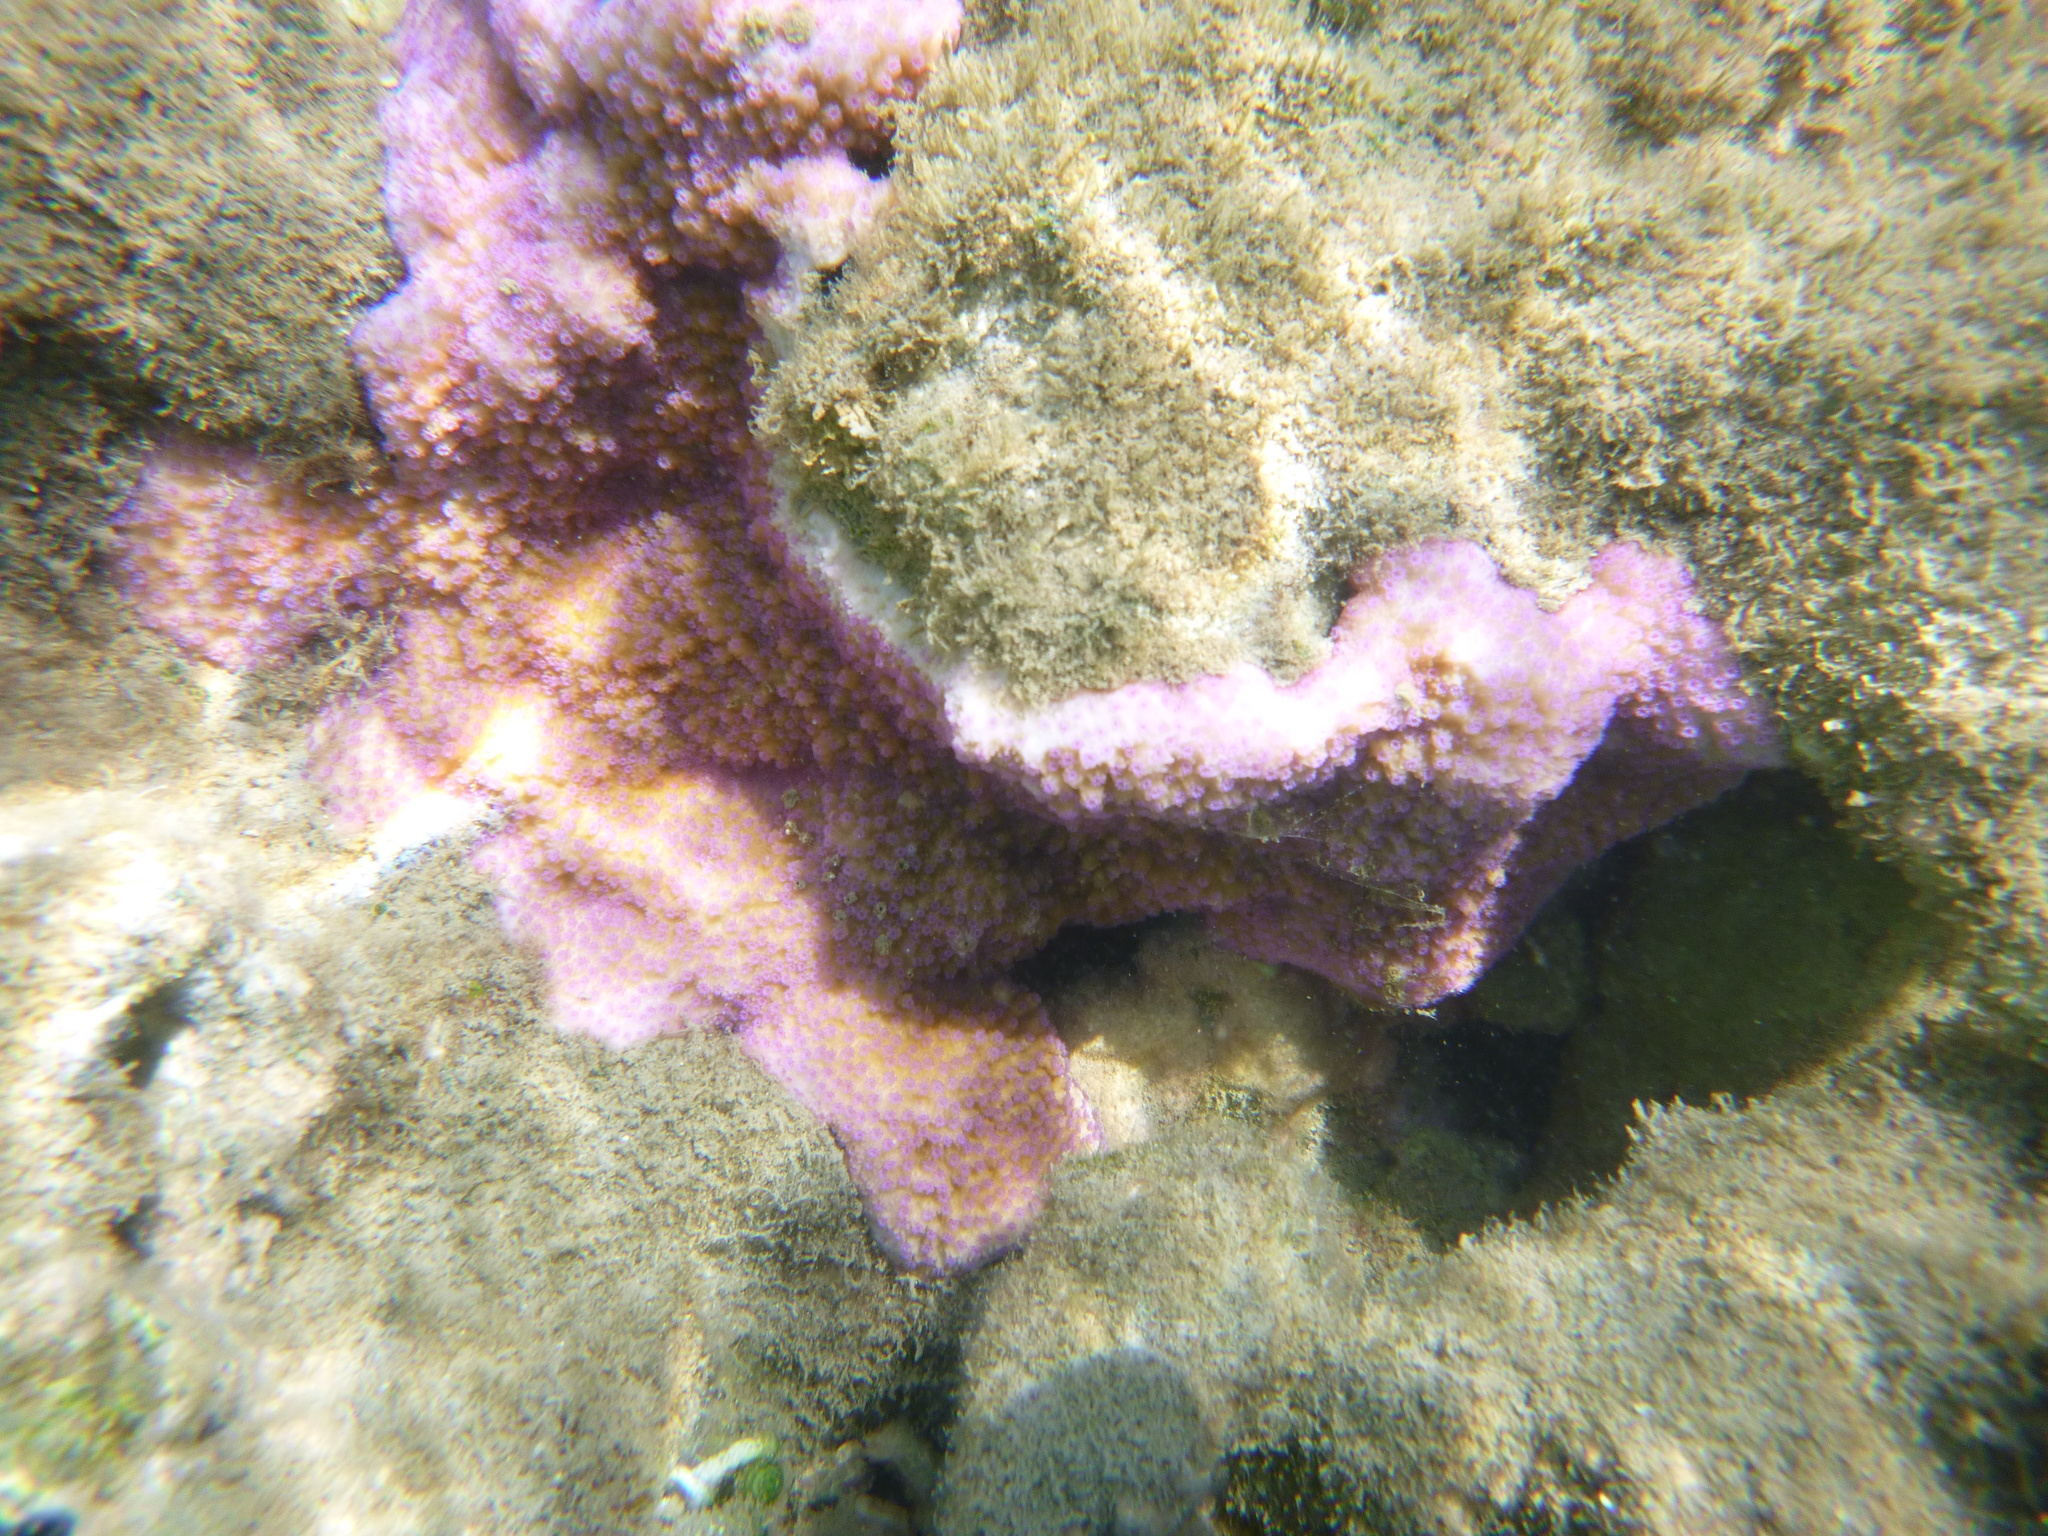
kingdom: Animalia
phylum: Cnidaria
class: Anthozoa
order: Scleractinia
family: Acroporidae
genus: Montipora
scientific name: Montipora patula
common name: Pore coral
